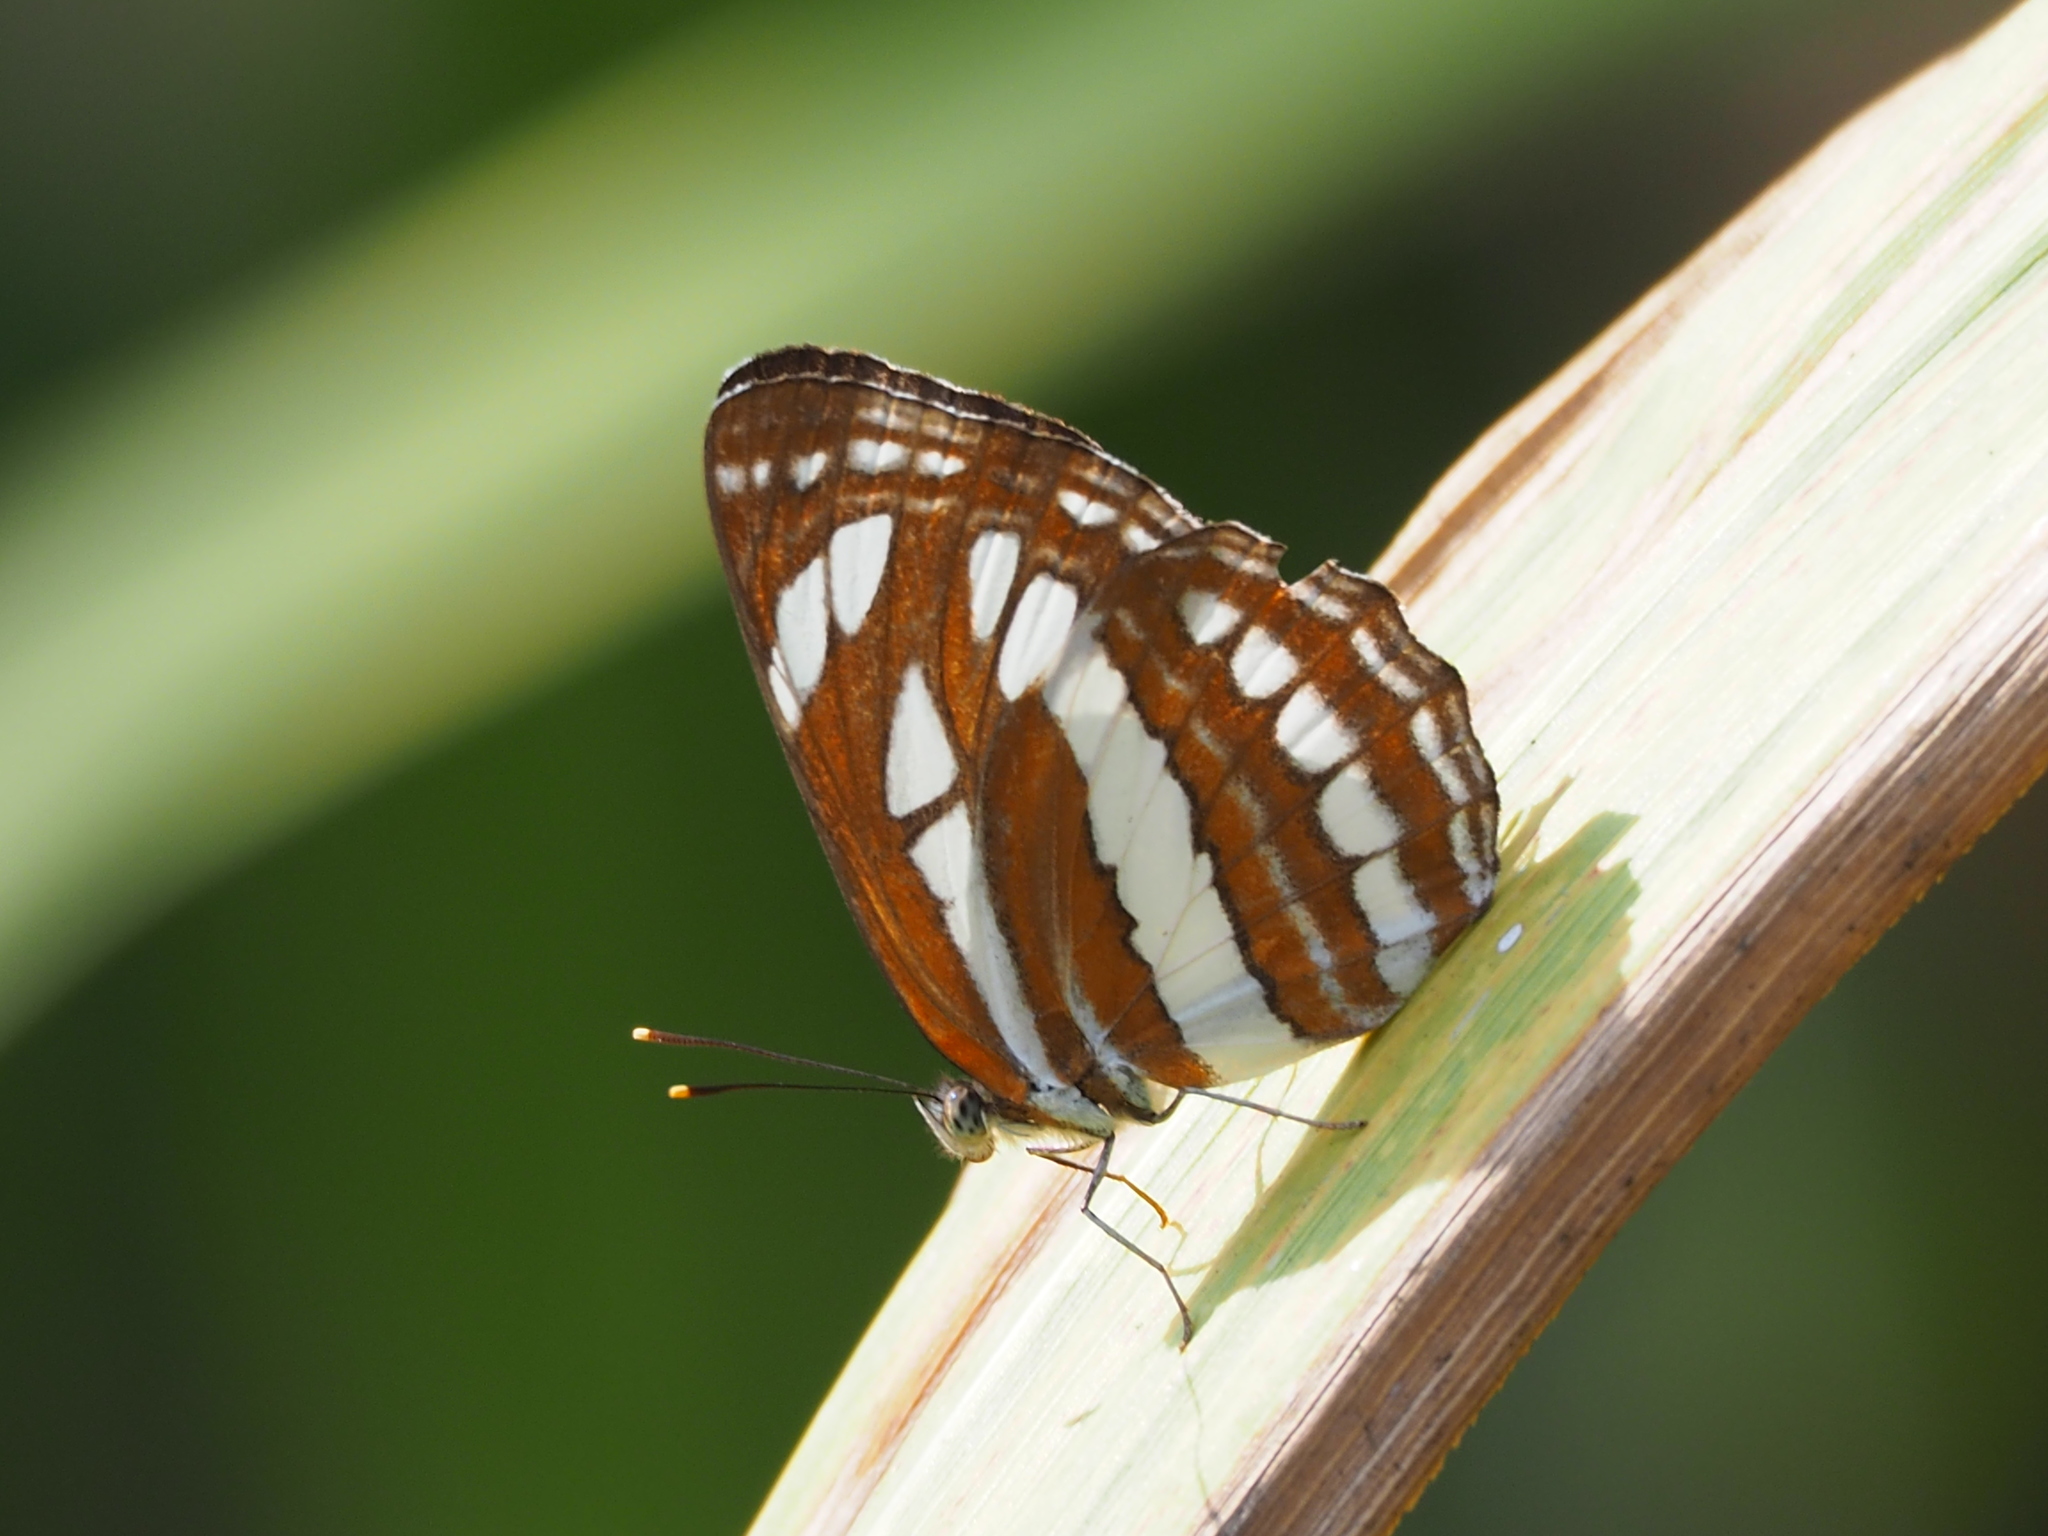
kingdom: Animalia
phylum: Arthropoda
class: Insecta
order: Lepidoptera
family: Nymphalidae
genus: Neptis
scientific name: Neptis hylas
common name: Common sailer
